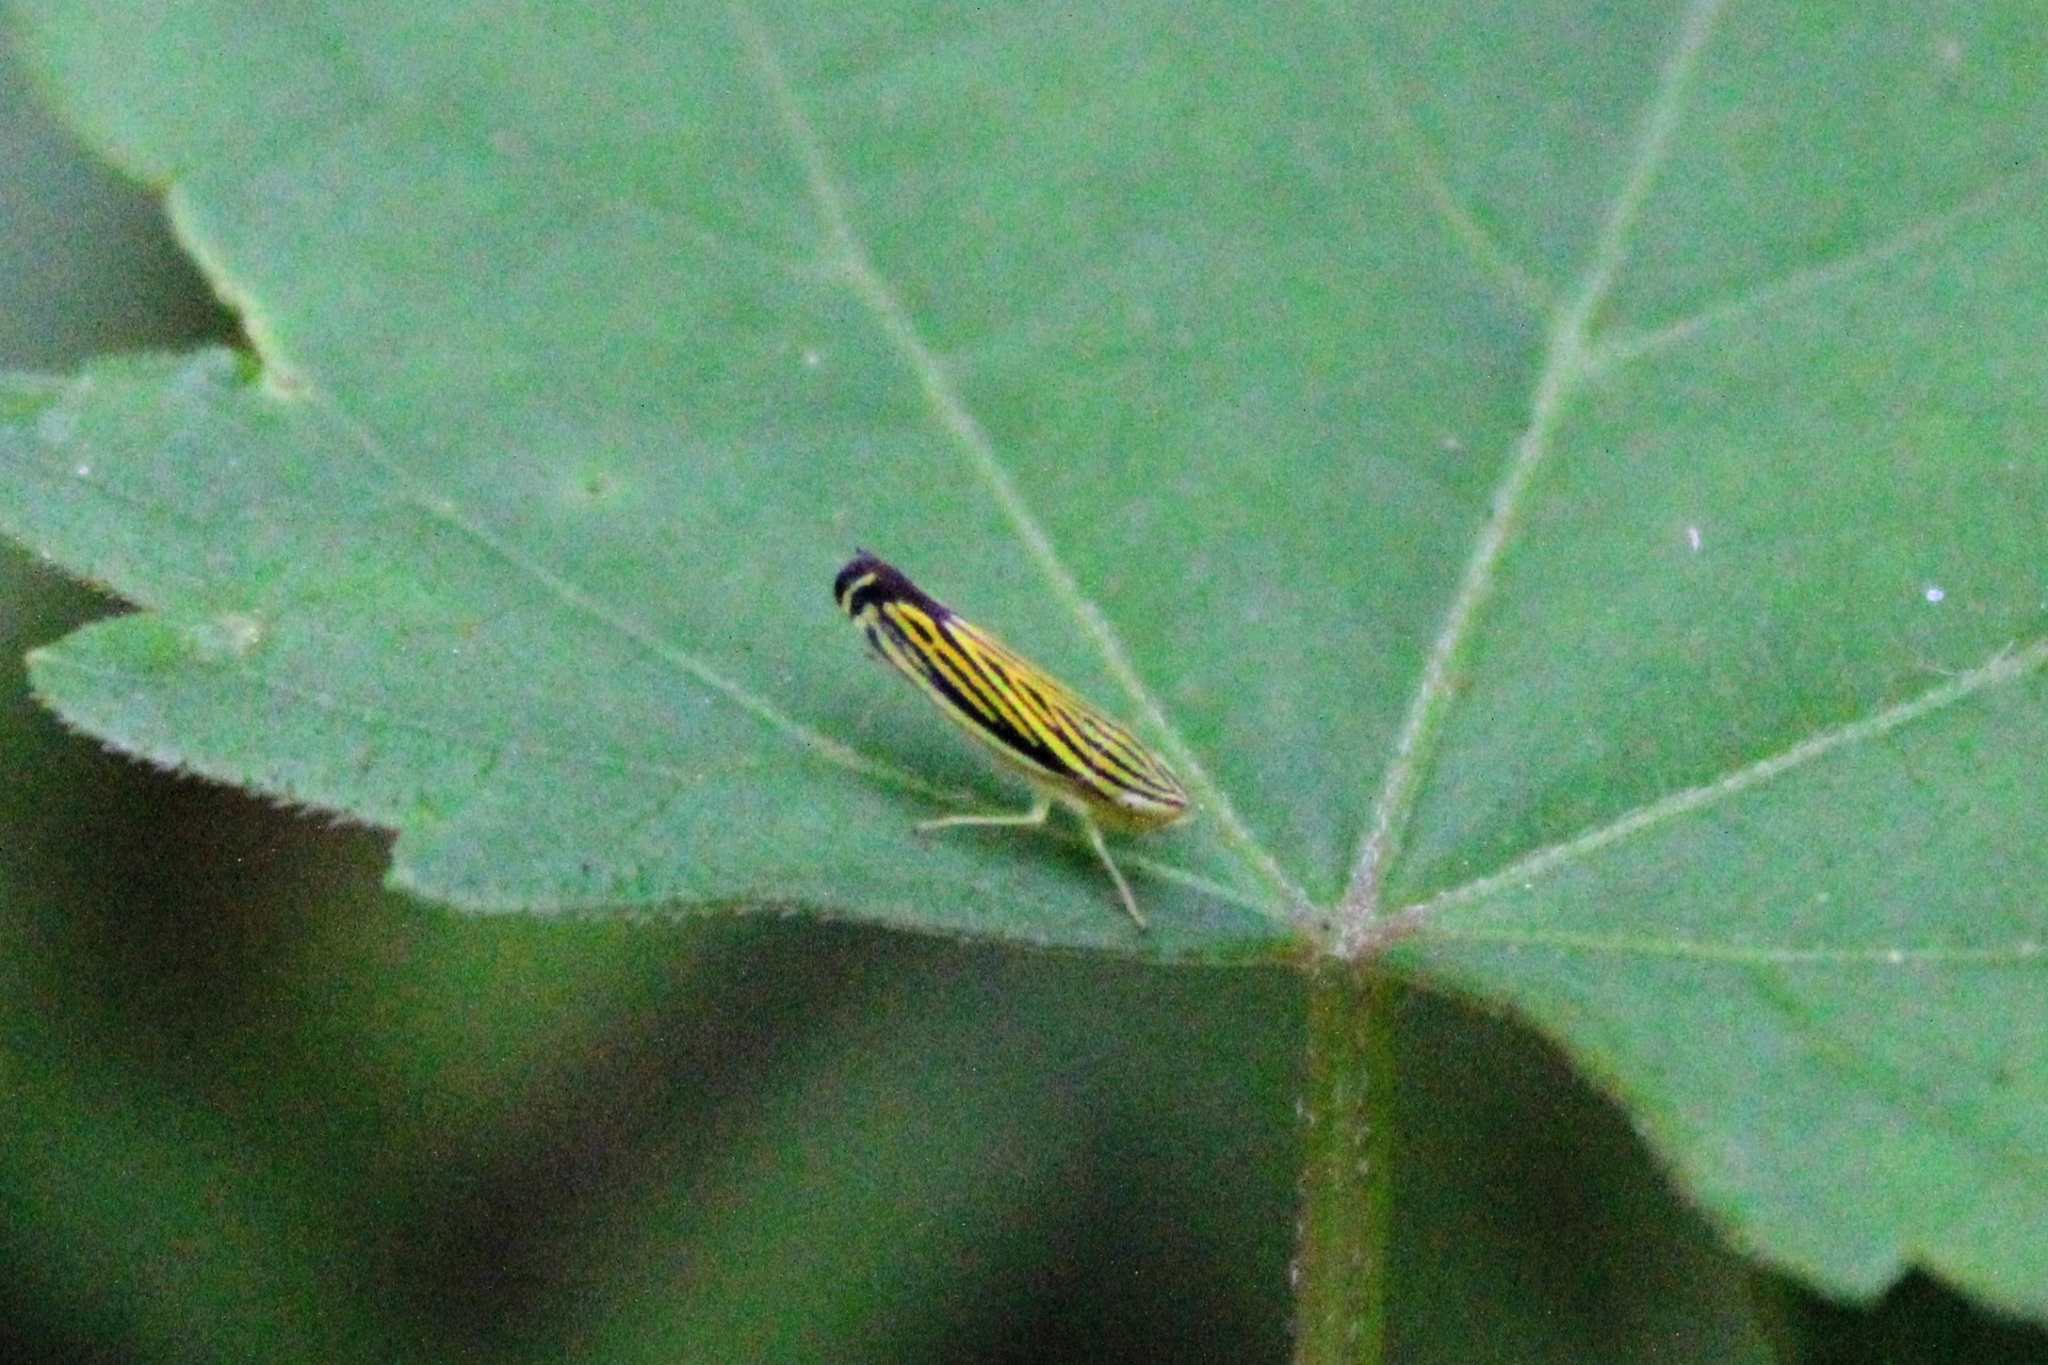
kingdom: Animalia
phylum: Arthropoda
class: Insecta
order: Hemiptera
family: Cicadellidae
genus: Sibovia
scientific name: Sibovia occatoria
